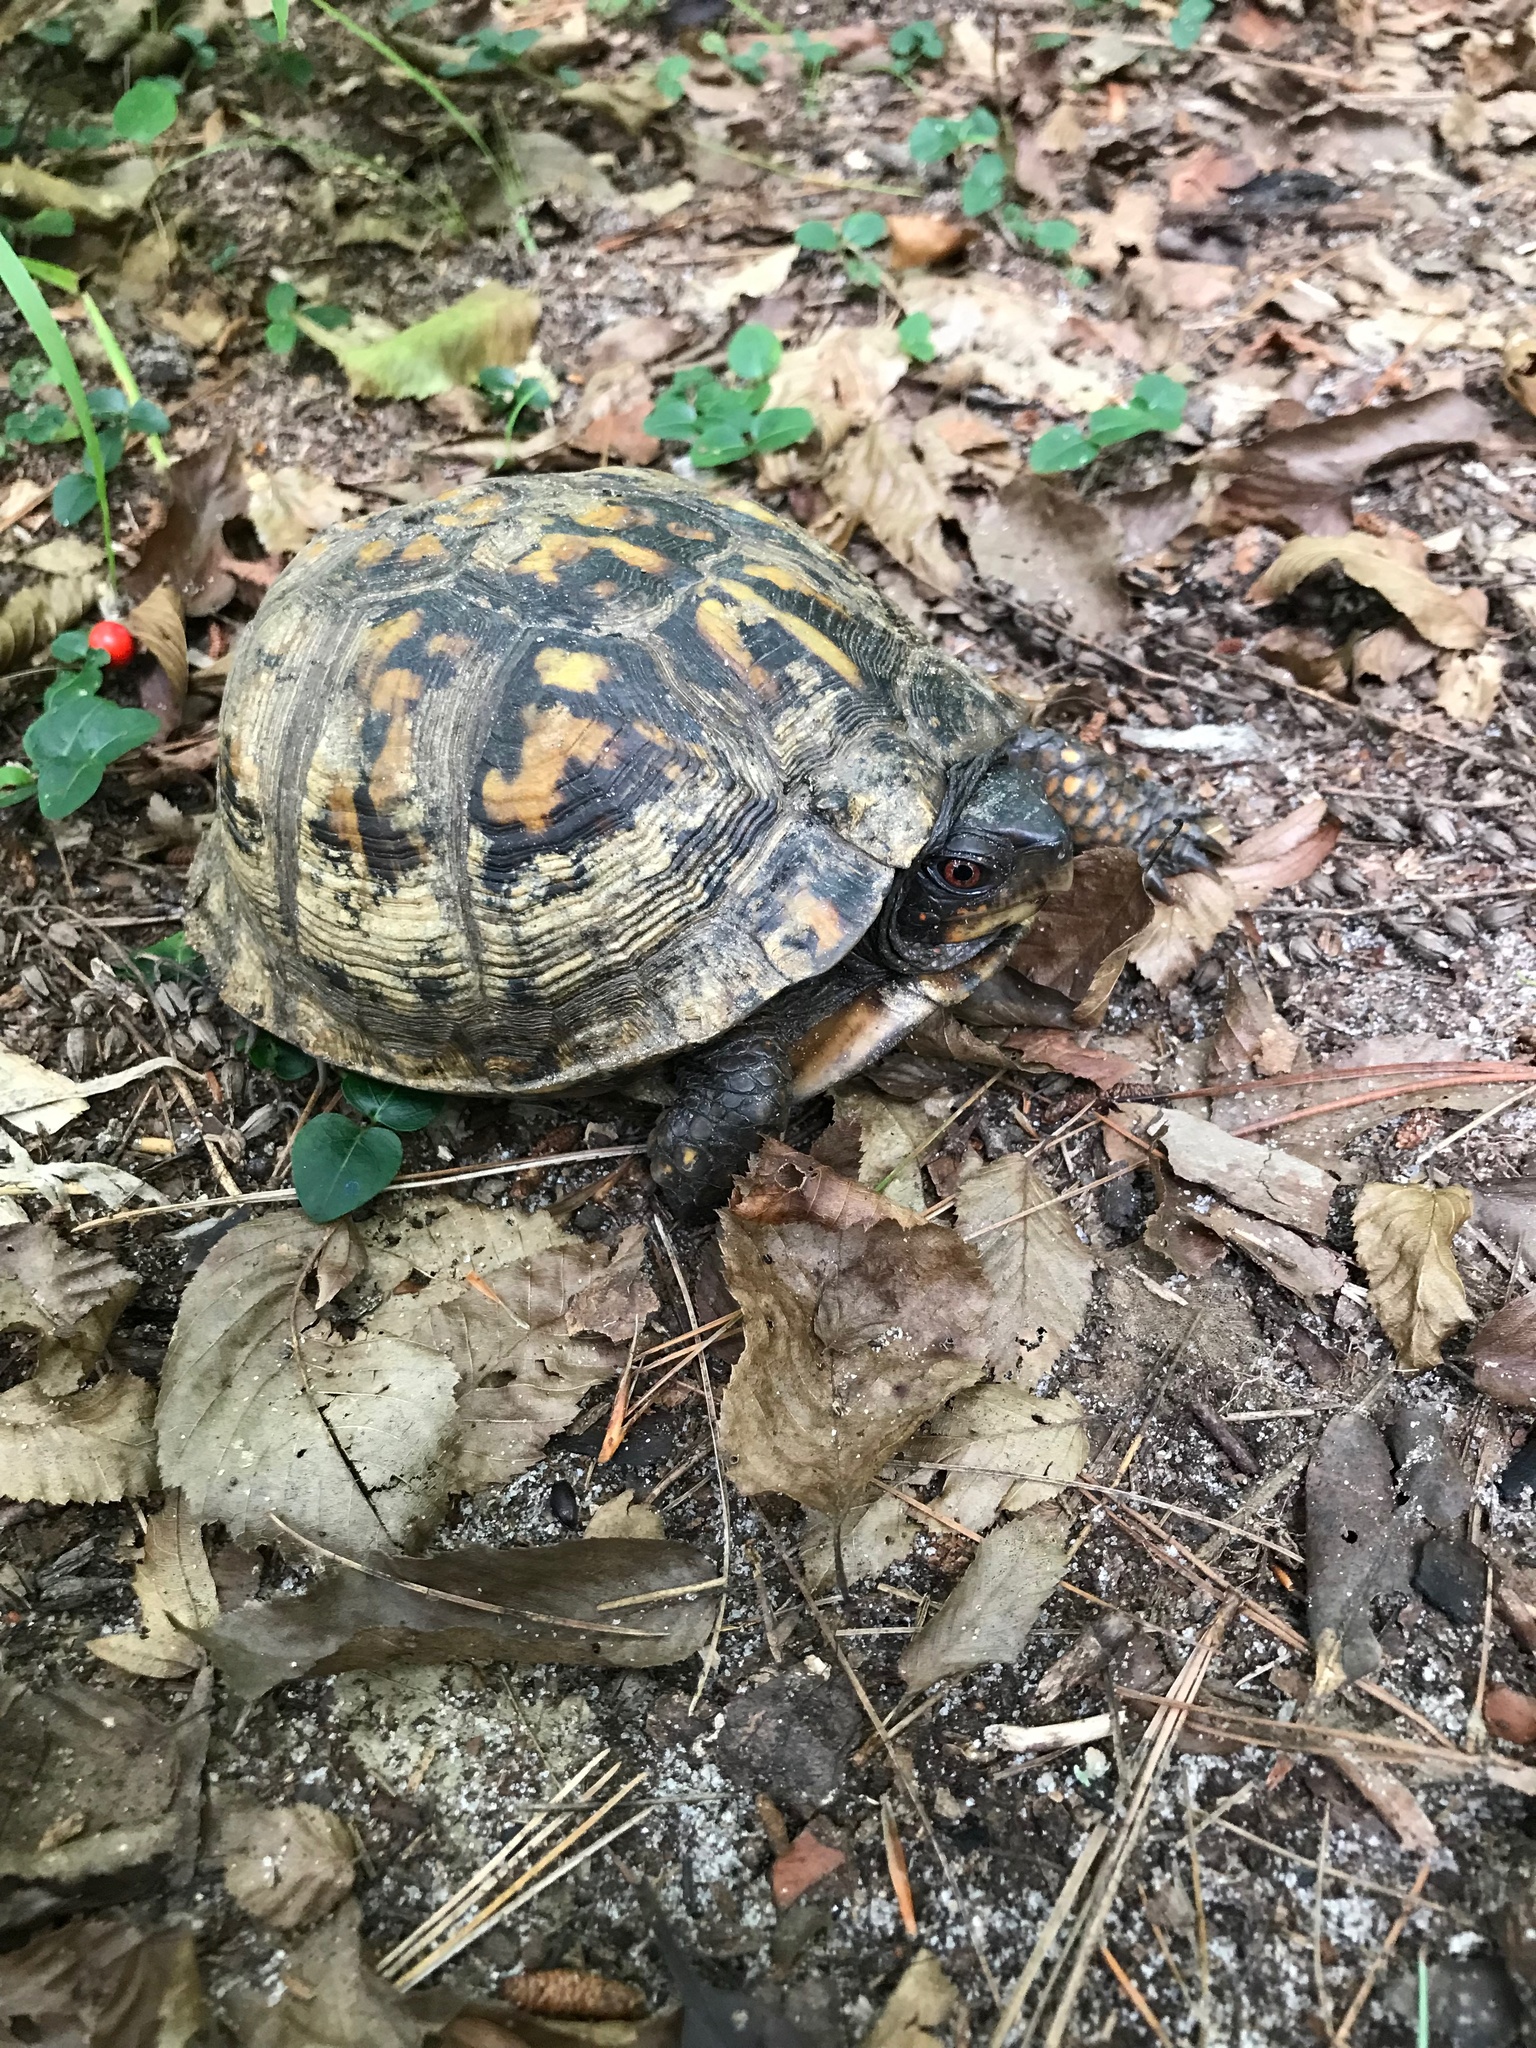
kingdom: Animalia
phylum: Chordata
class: Testudines
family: Emydidae
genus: Terrapene
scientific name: Terrapene carolina
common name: Common box turtle
